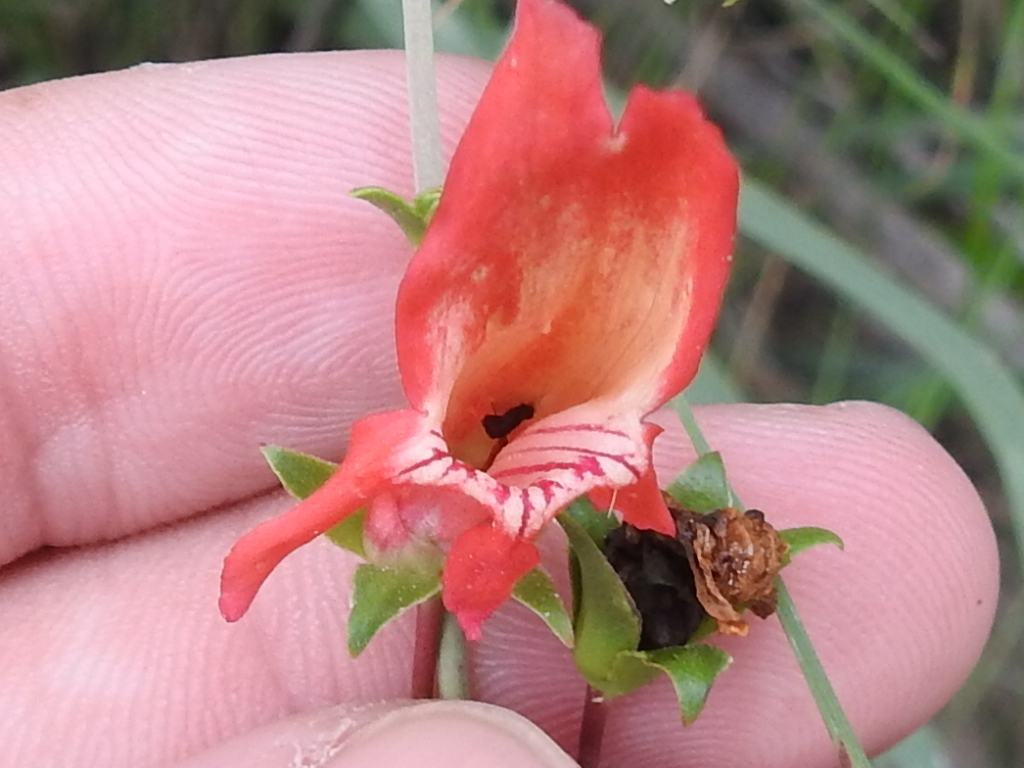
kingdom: Plantae
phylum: Tracheophyta
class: Magnoliopsida
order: Lamiales
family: Plantaginaceae
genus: Penstemon
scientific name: Penstemon barbatus
